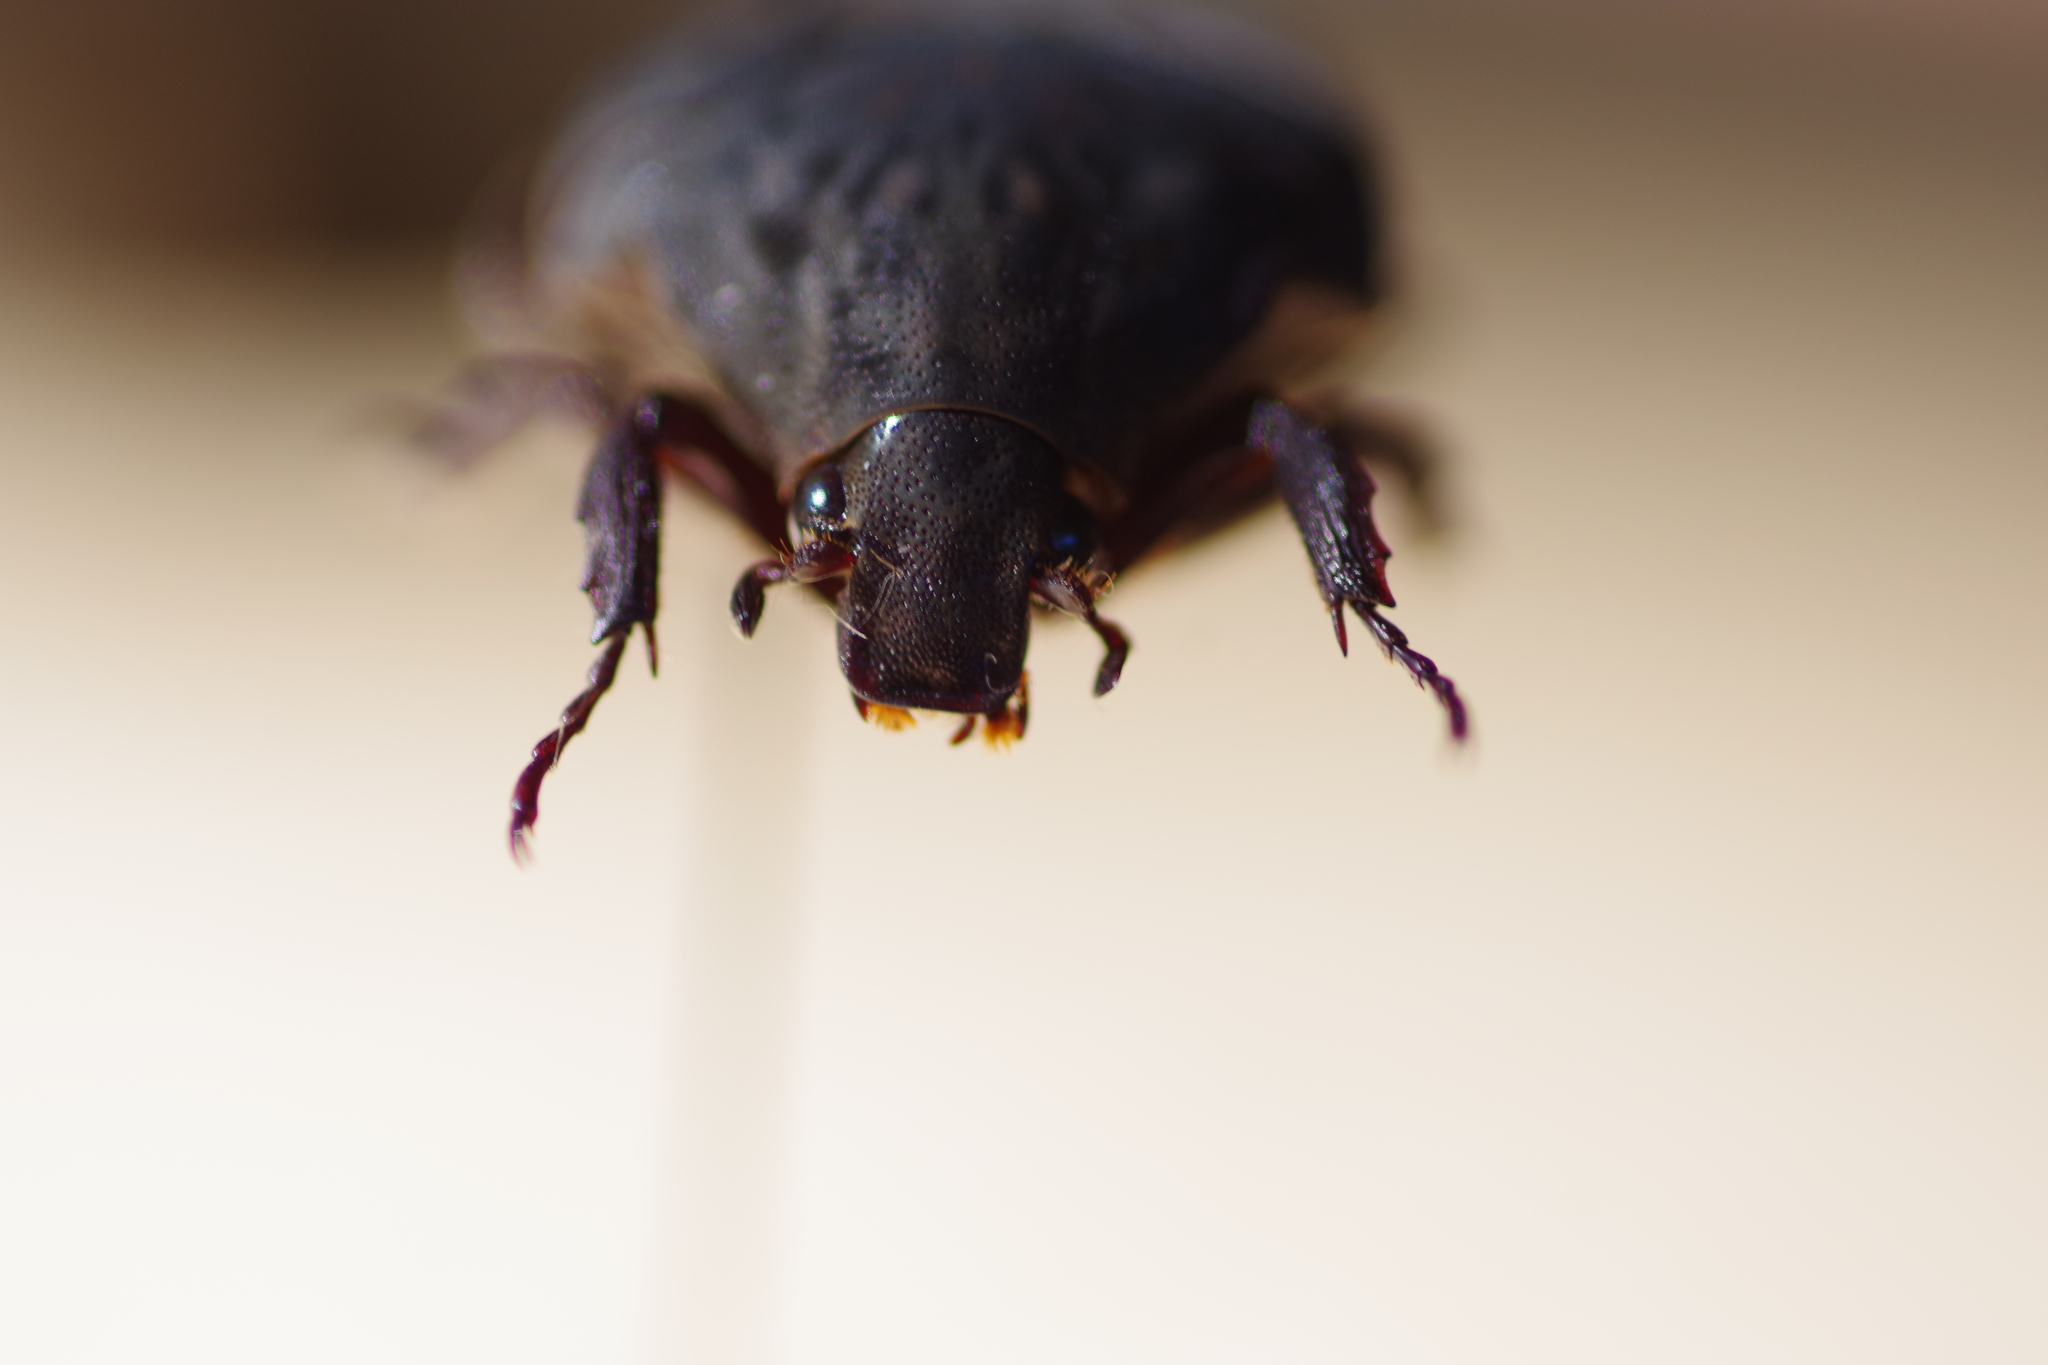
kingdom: Animalia
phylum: Arthropoda
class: Insecta
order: Coleoptera
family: Scarabaeidae
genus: Gymnetis
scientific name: Gymnetis difficilis
